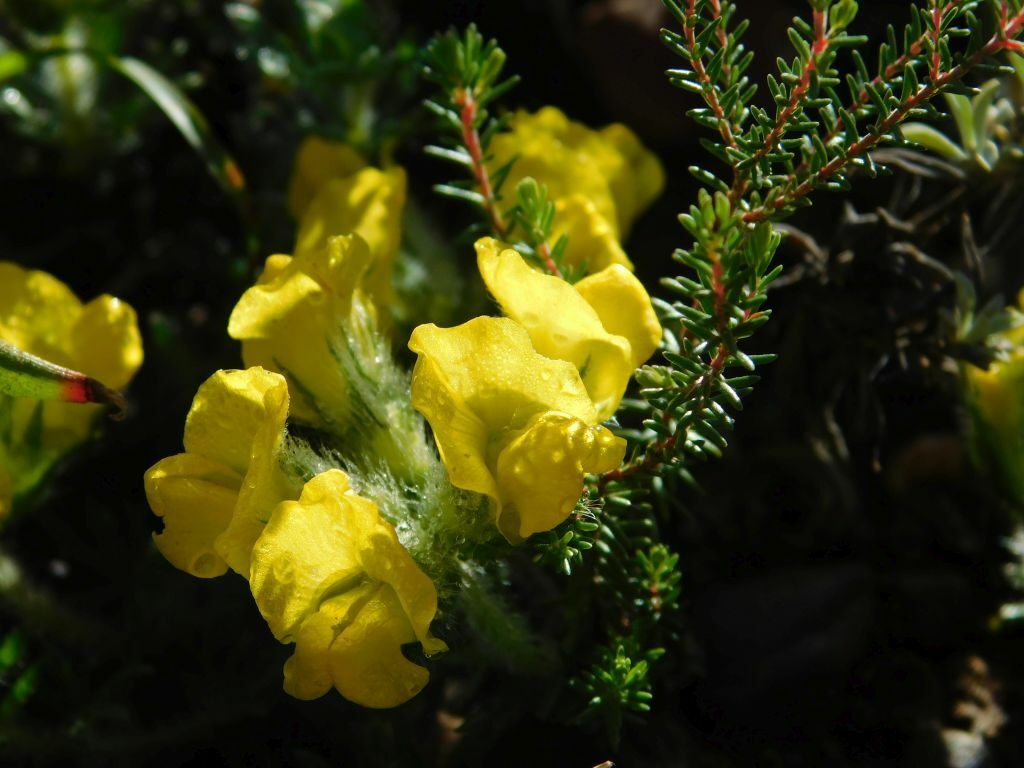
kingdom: Plantae
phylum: Tracheophyta
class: Magnoliopsida
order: Fabales
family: Fabaceae
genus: Lotononis
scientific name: Lotononis involucrata
